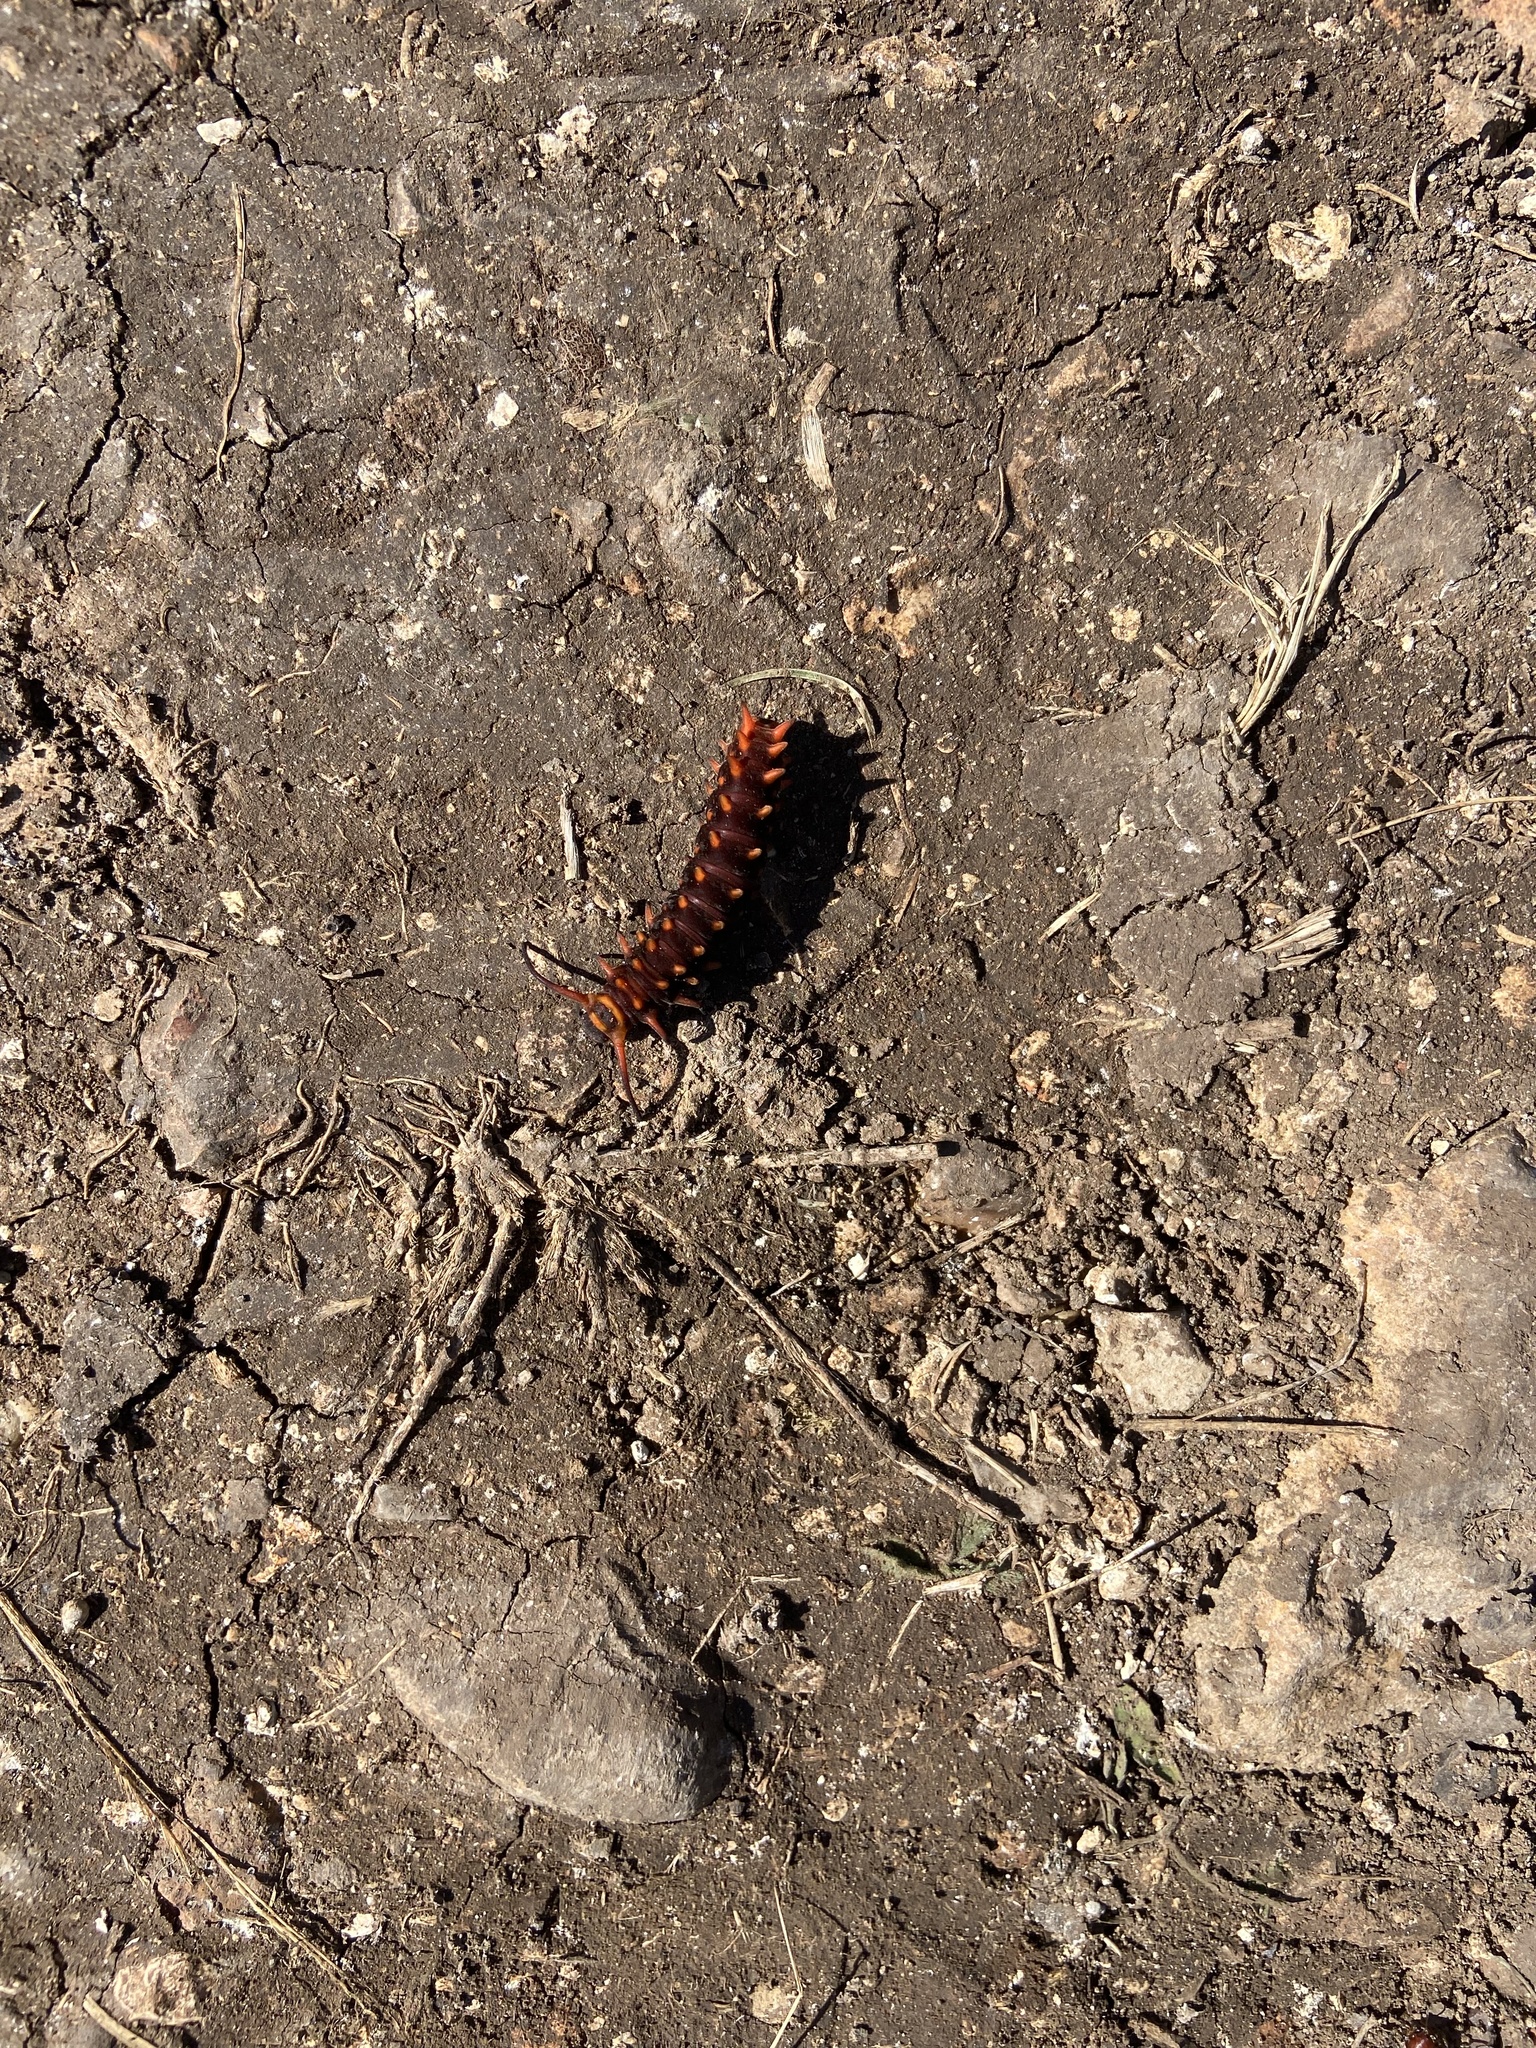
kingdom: Animalia
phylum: Arthropoda
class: Insecta
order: Lepidoptera
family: Papilionidae
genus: Battus
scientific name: Battus philenor
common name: Pipevine swallowtail
